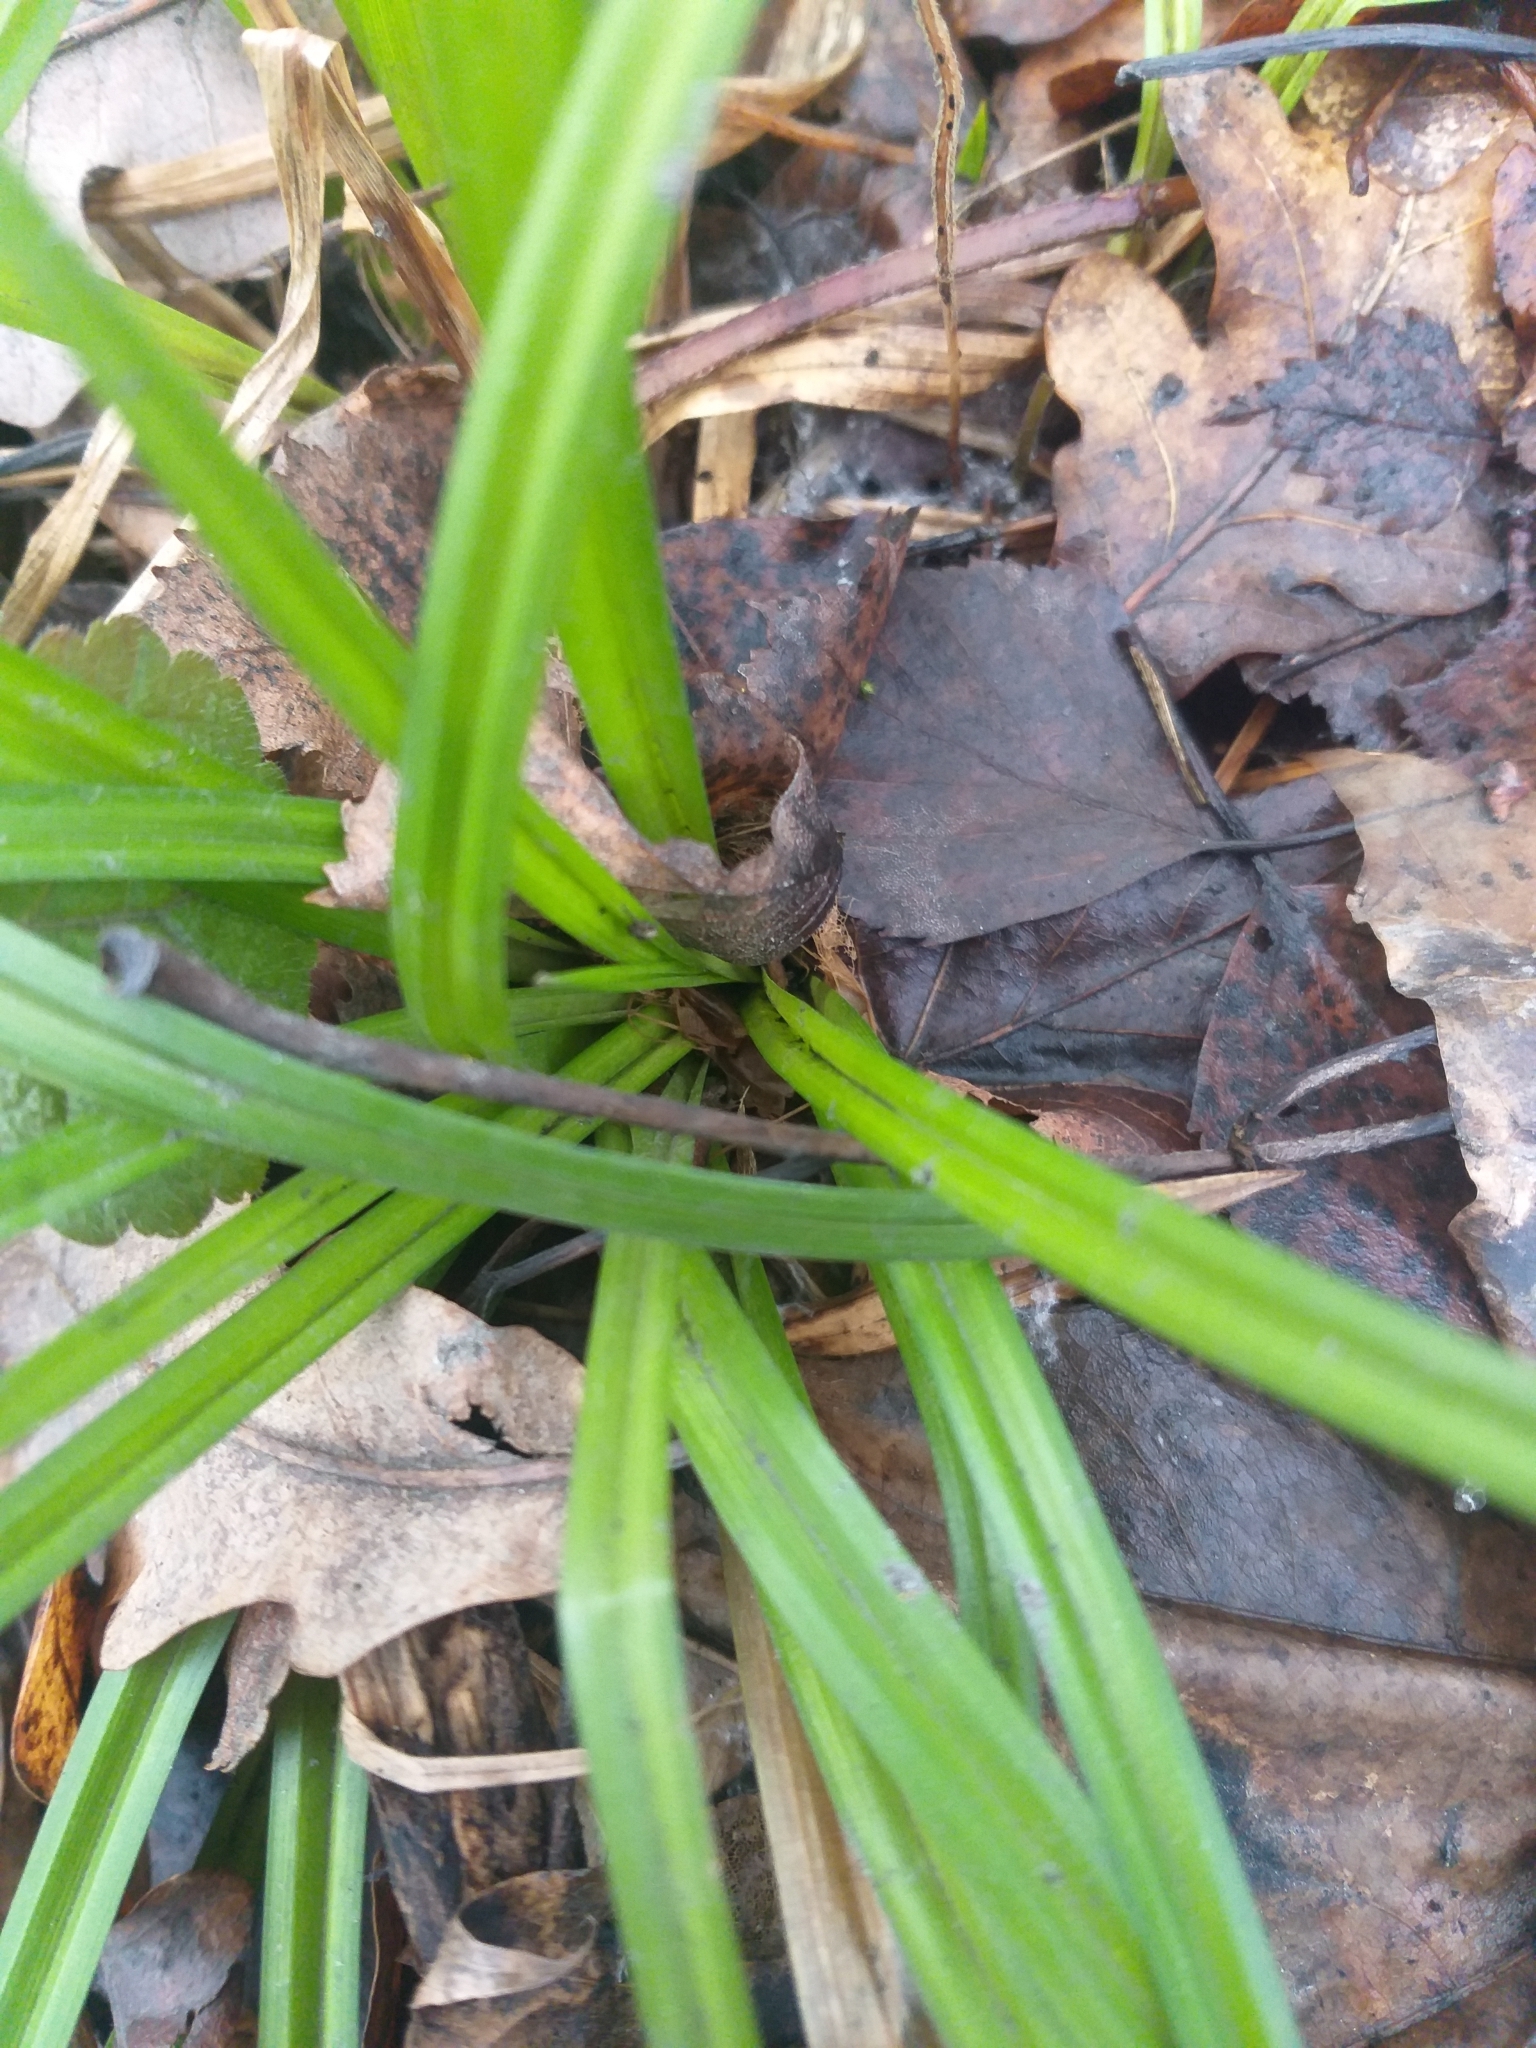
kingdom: Plantae
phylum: Tracheophyta
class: Liliopsida
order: Poales
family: Cyperaceae
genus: Carex
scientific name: Carex sylvatica
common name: Wood-sedge
